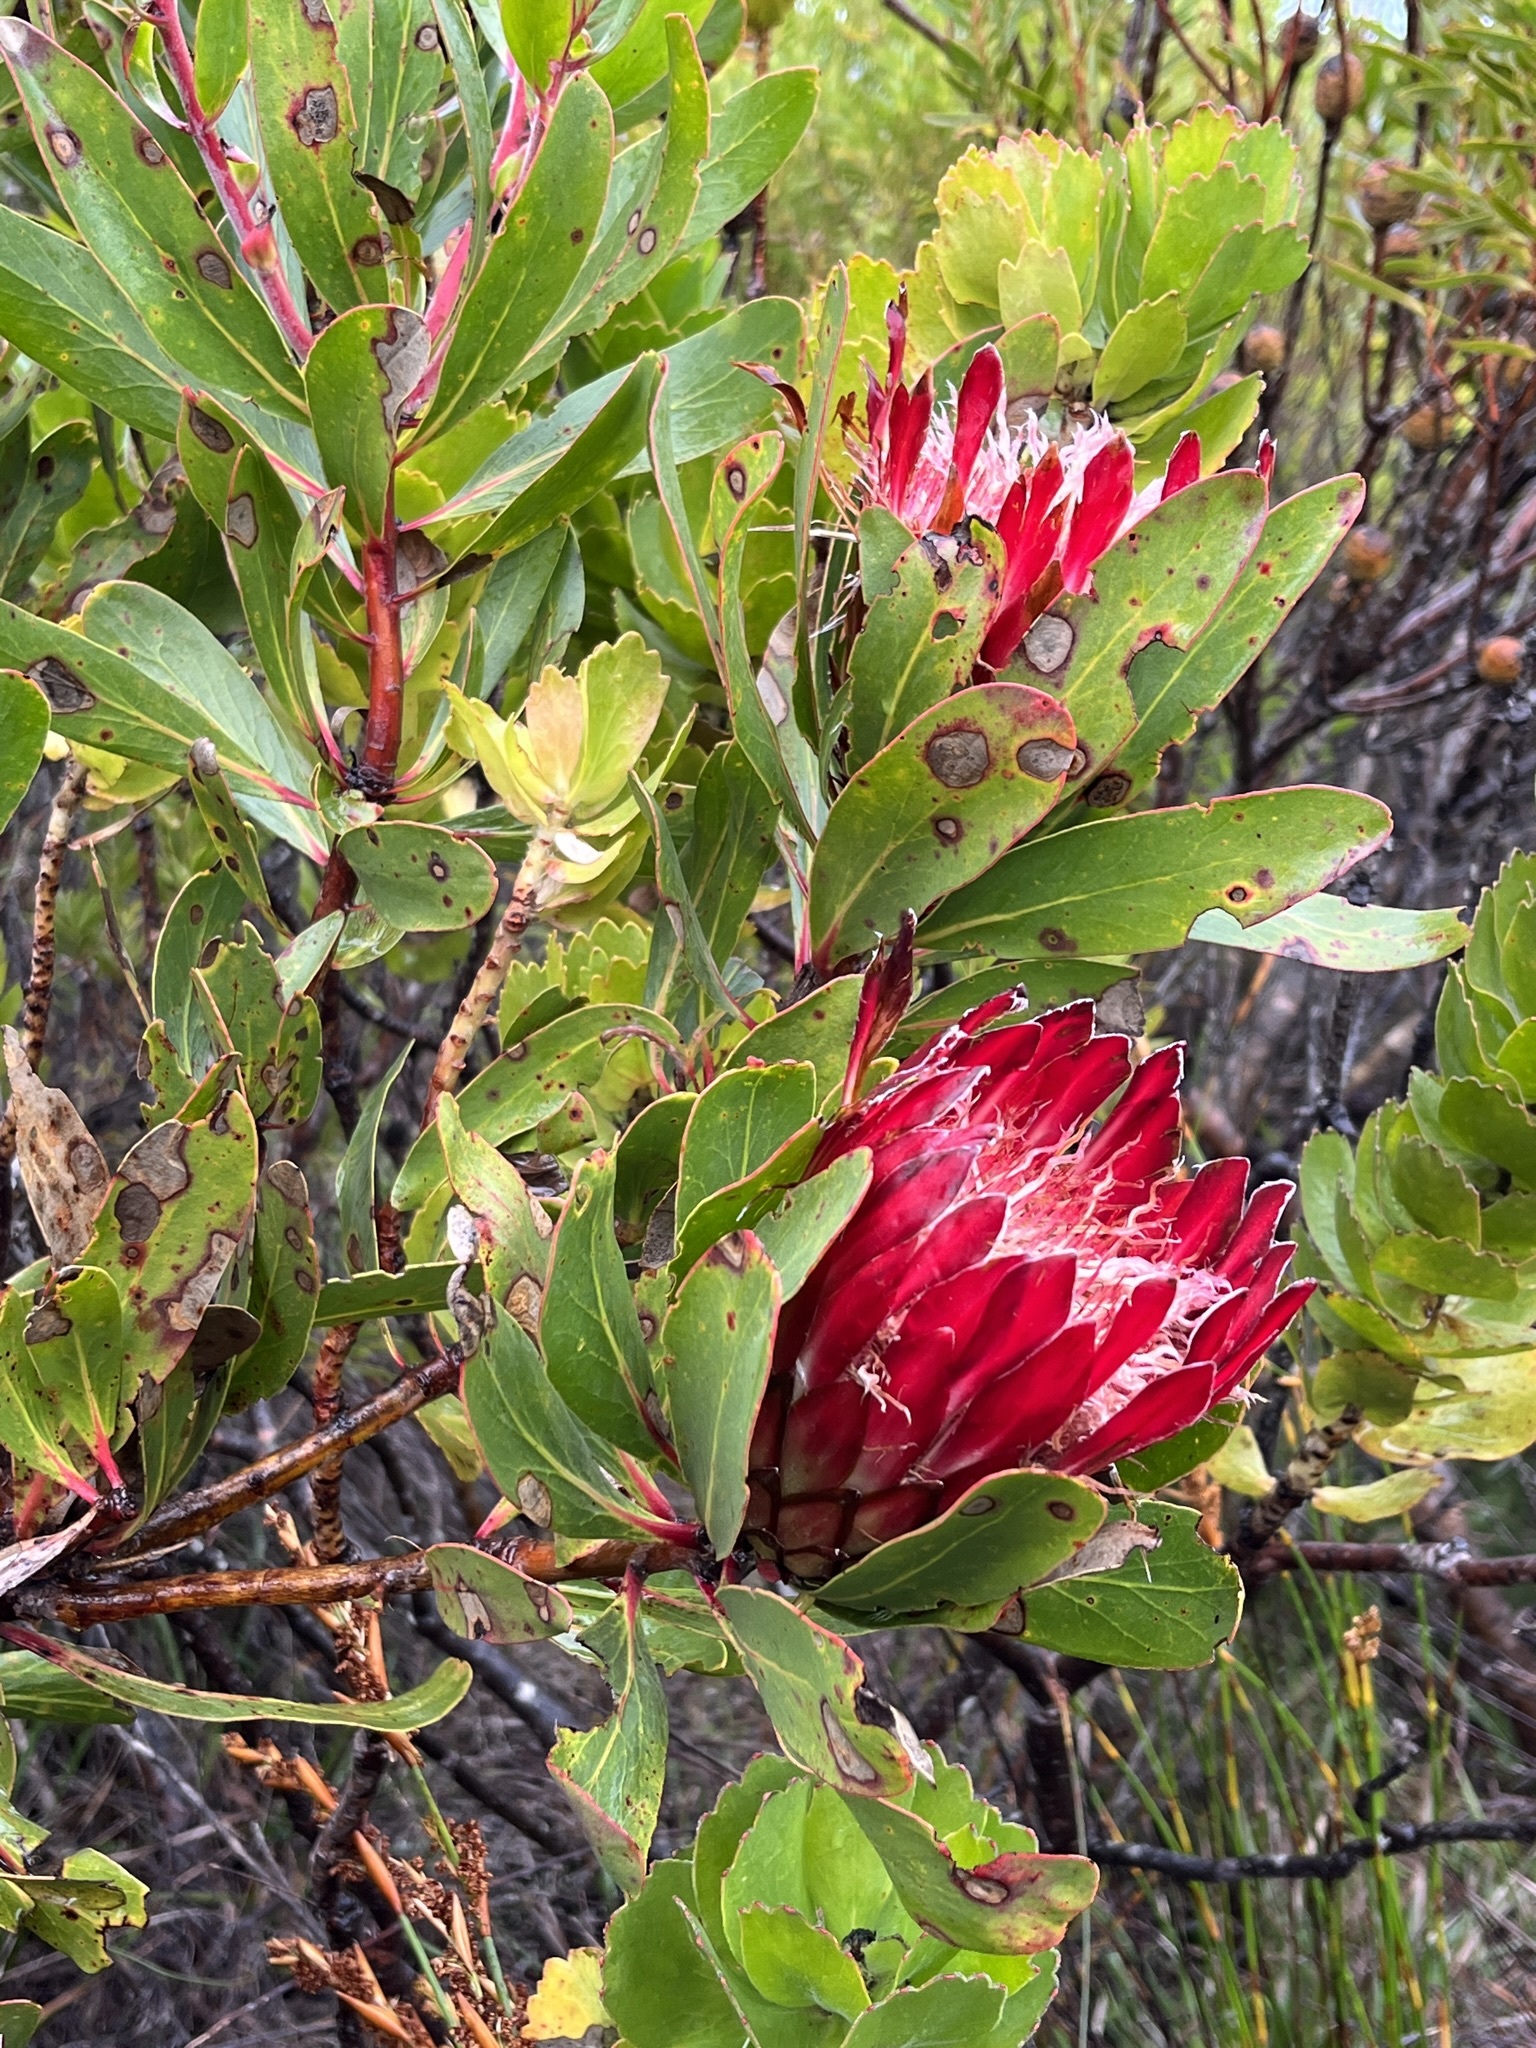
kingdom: Plantae
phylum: Tracheophyta
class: Magnoliopsida
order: Proteales
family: Proteaceae
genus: Protea
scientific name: Protea obtusifolia
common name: Bredasdorp sugarbush
